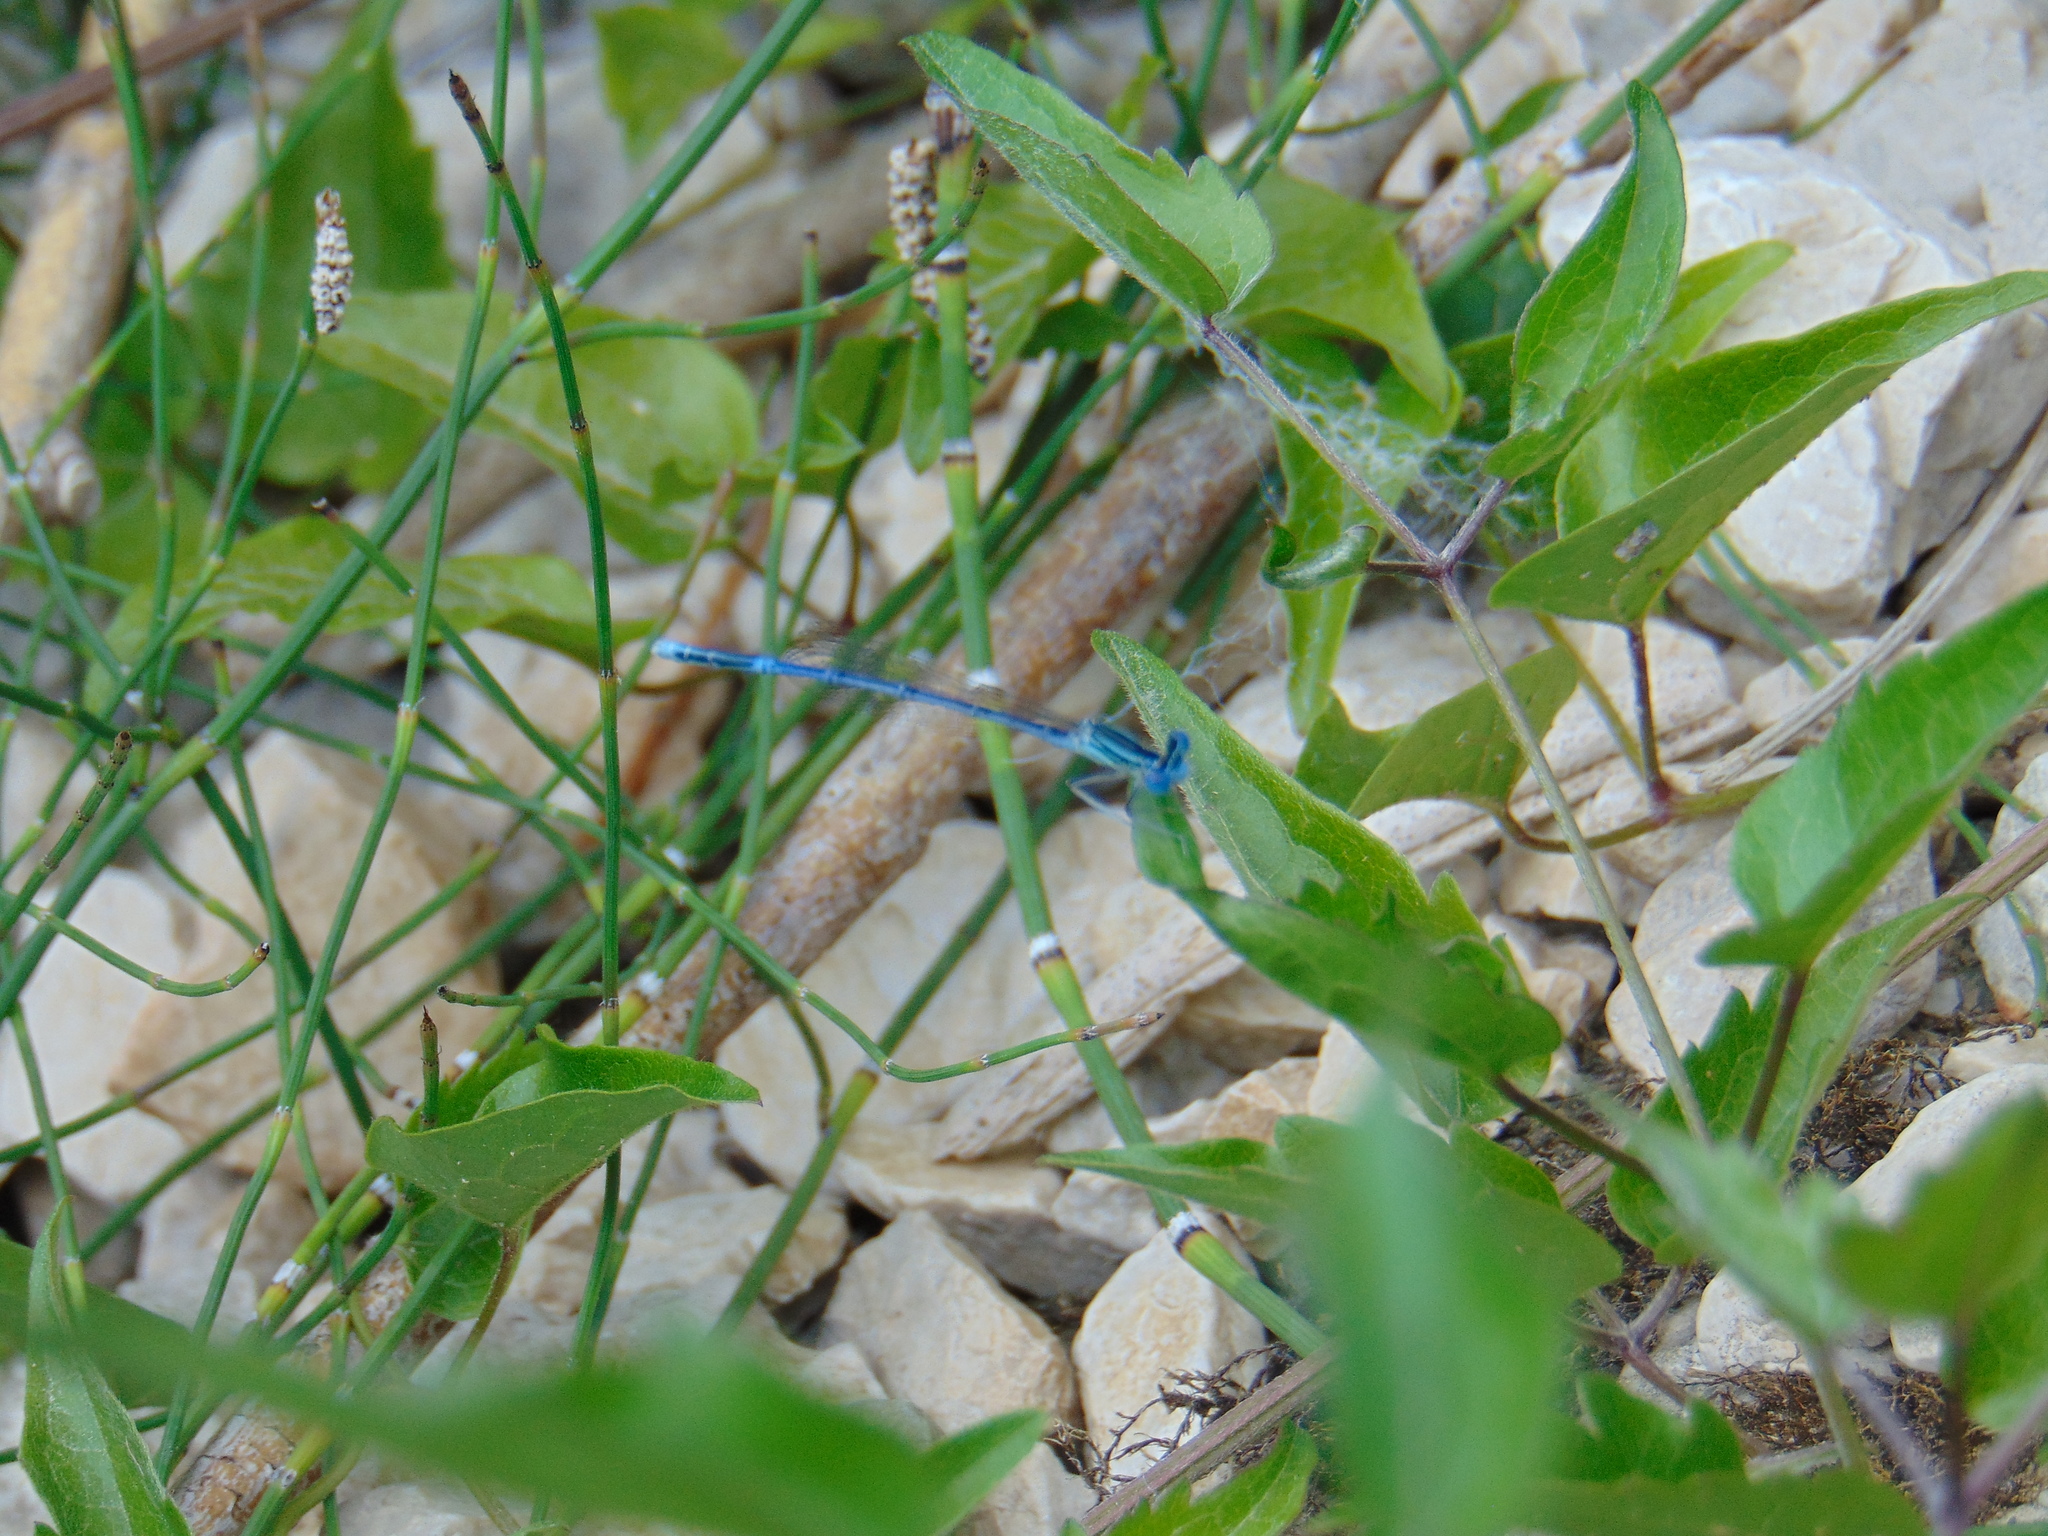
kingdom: Animalia
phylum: Arthropoda
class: Insecta
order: Odonata
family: Platycnemididae
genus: Platycnemis
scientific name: Platycnemis pennipes
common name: White-legged damselfly
